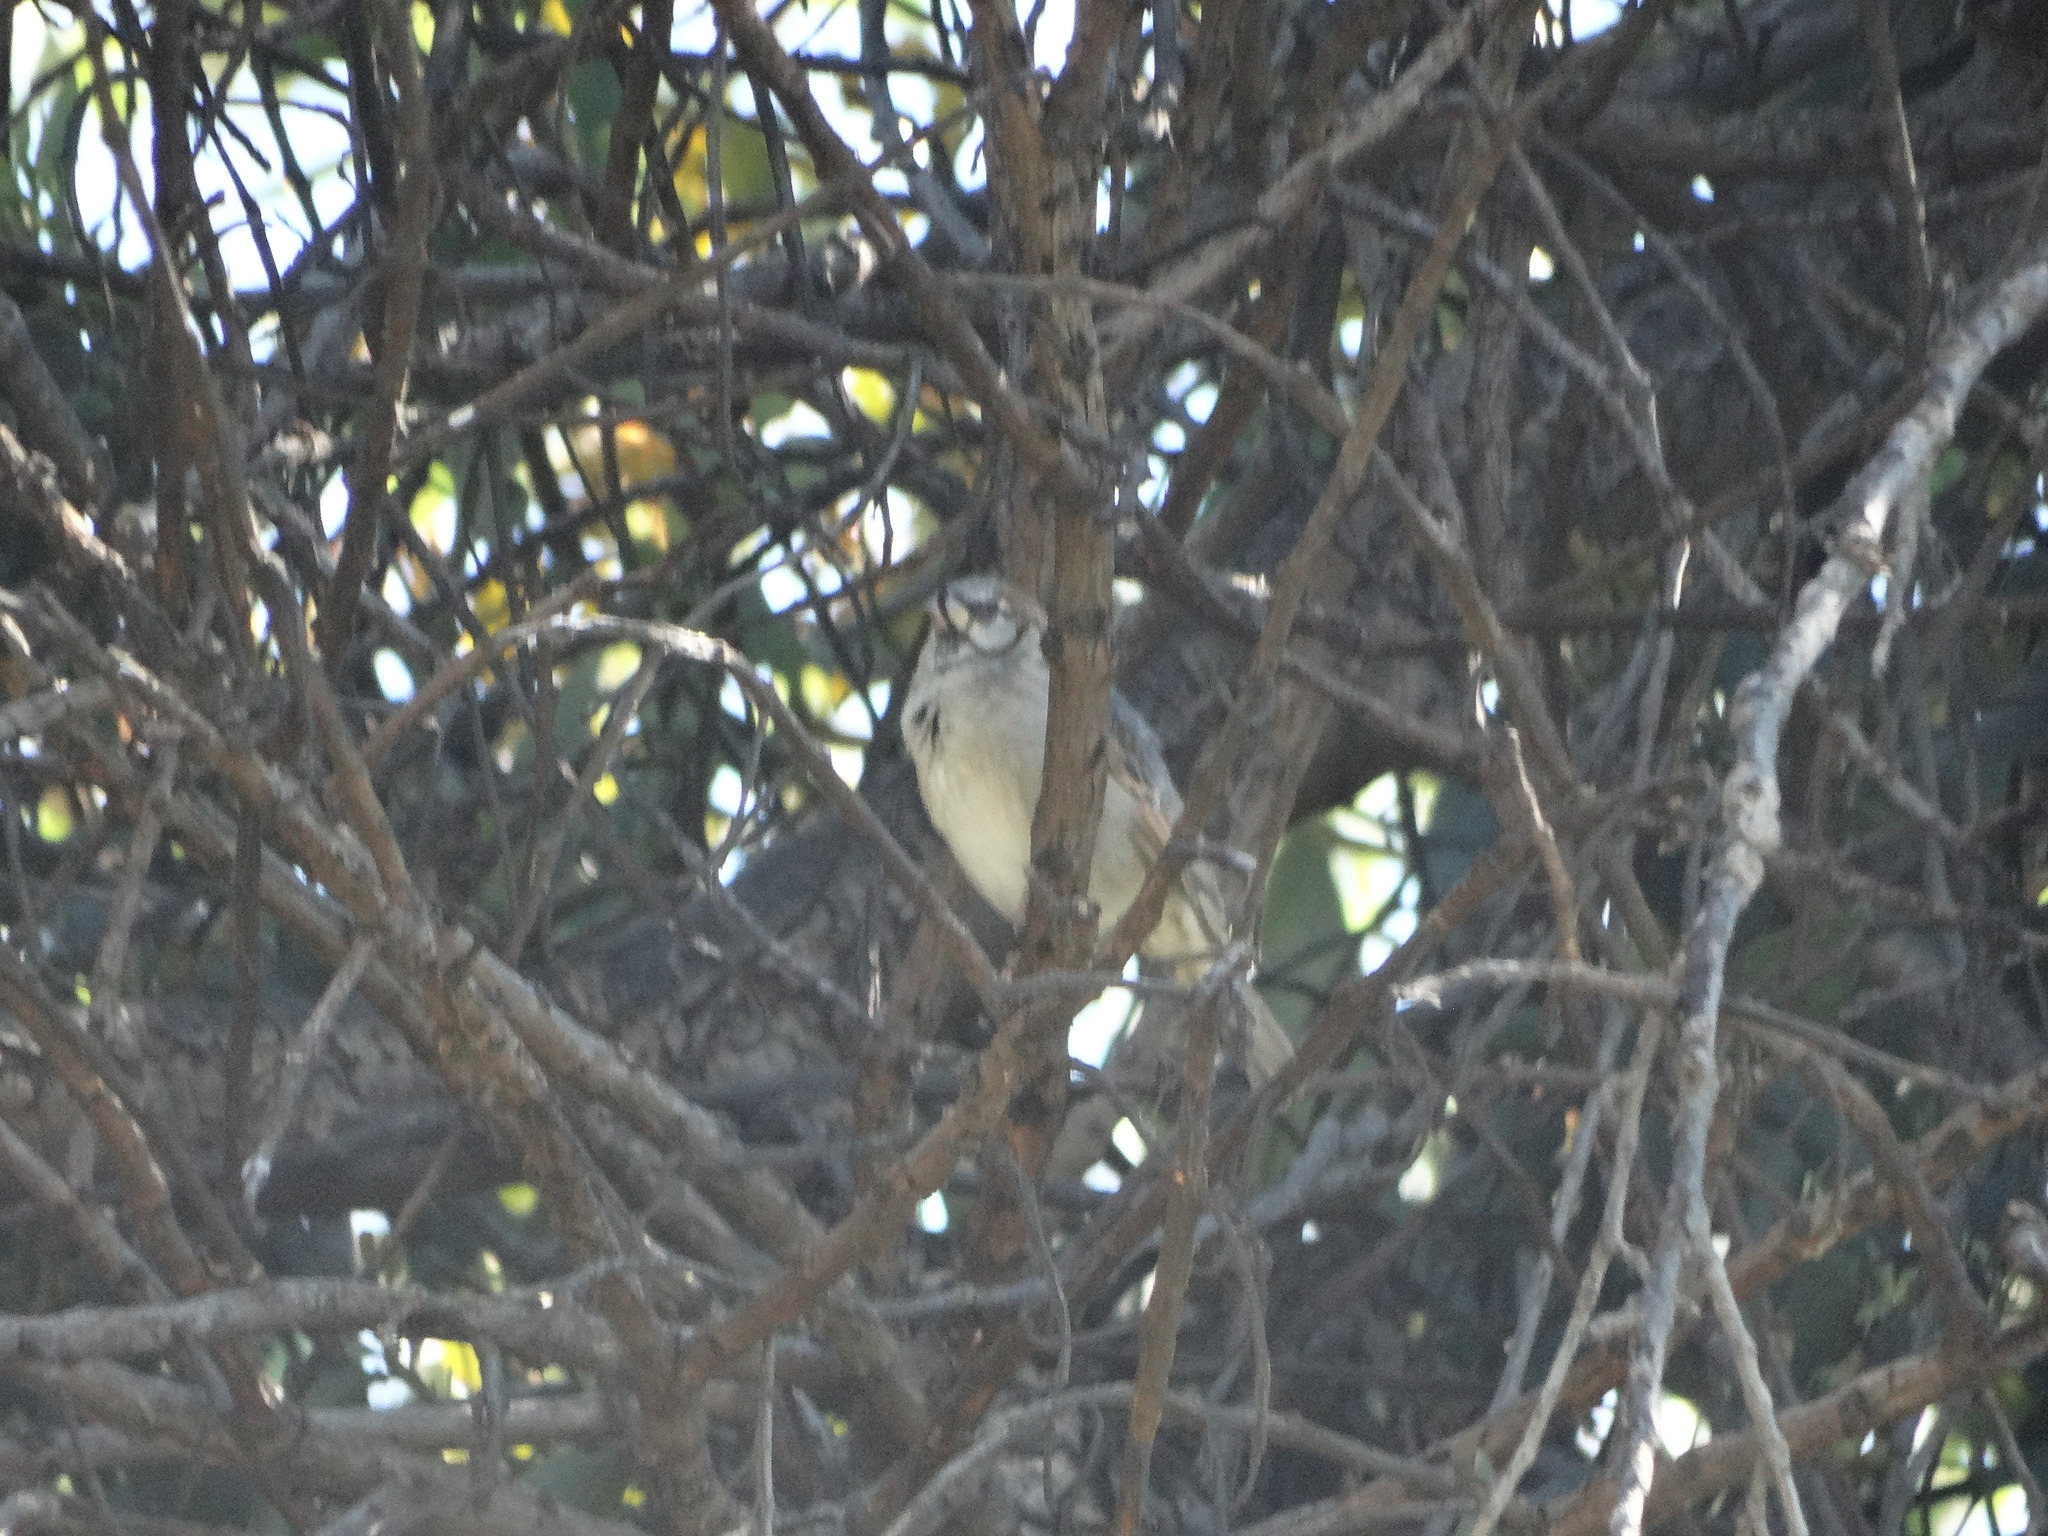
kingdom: Animalia
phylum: Chordata
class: Aves
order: Passeriformes
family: Passeridae
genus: Passer
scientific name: Passer domesticus
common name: House sparrow
